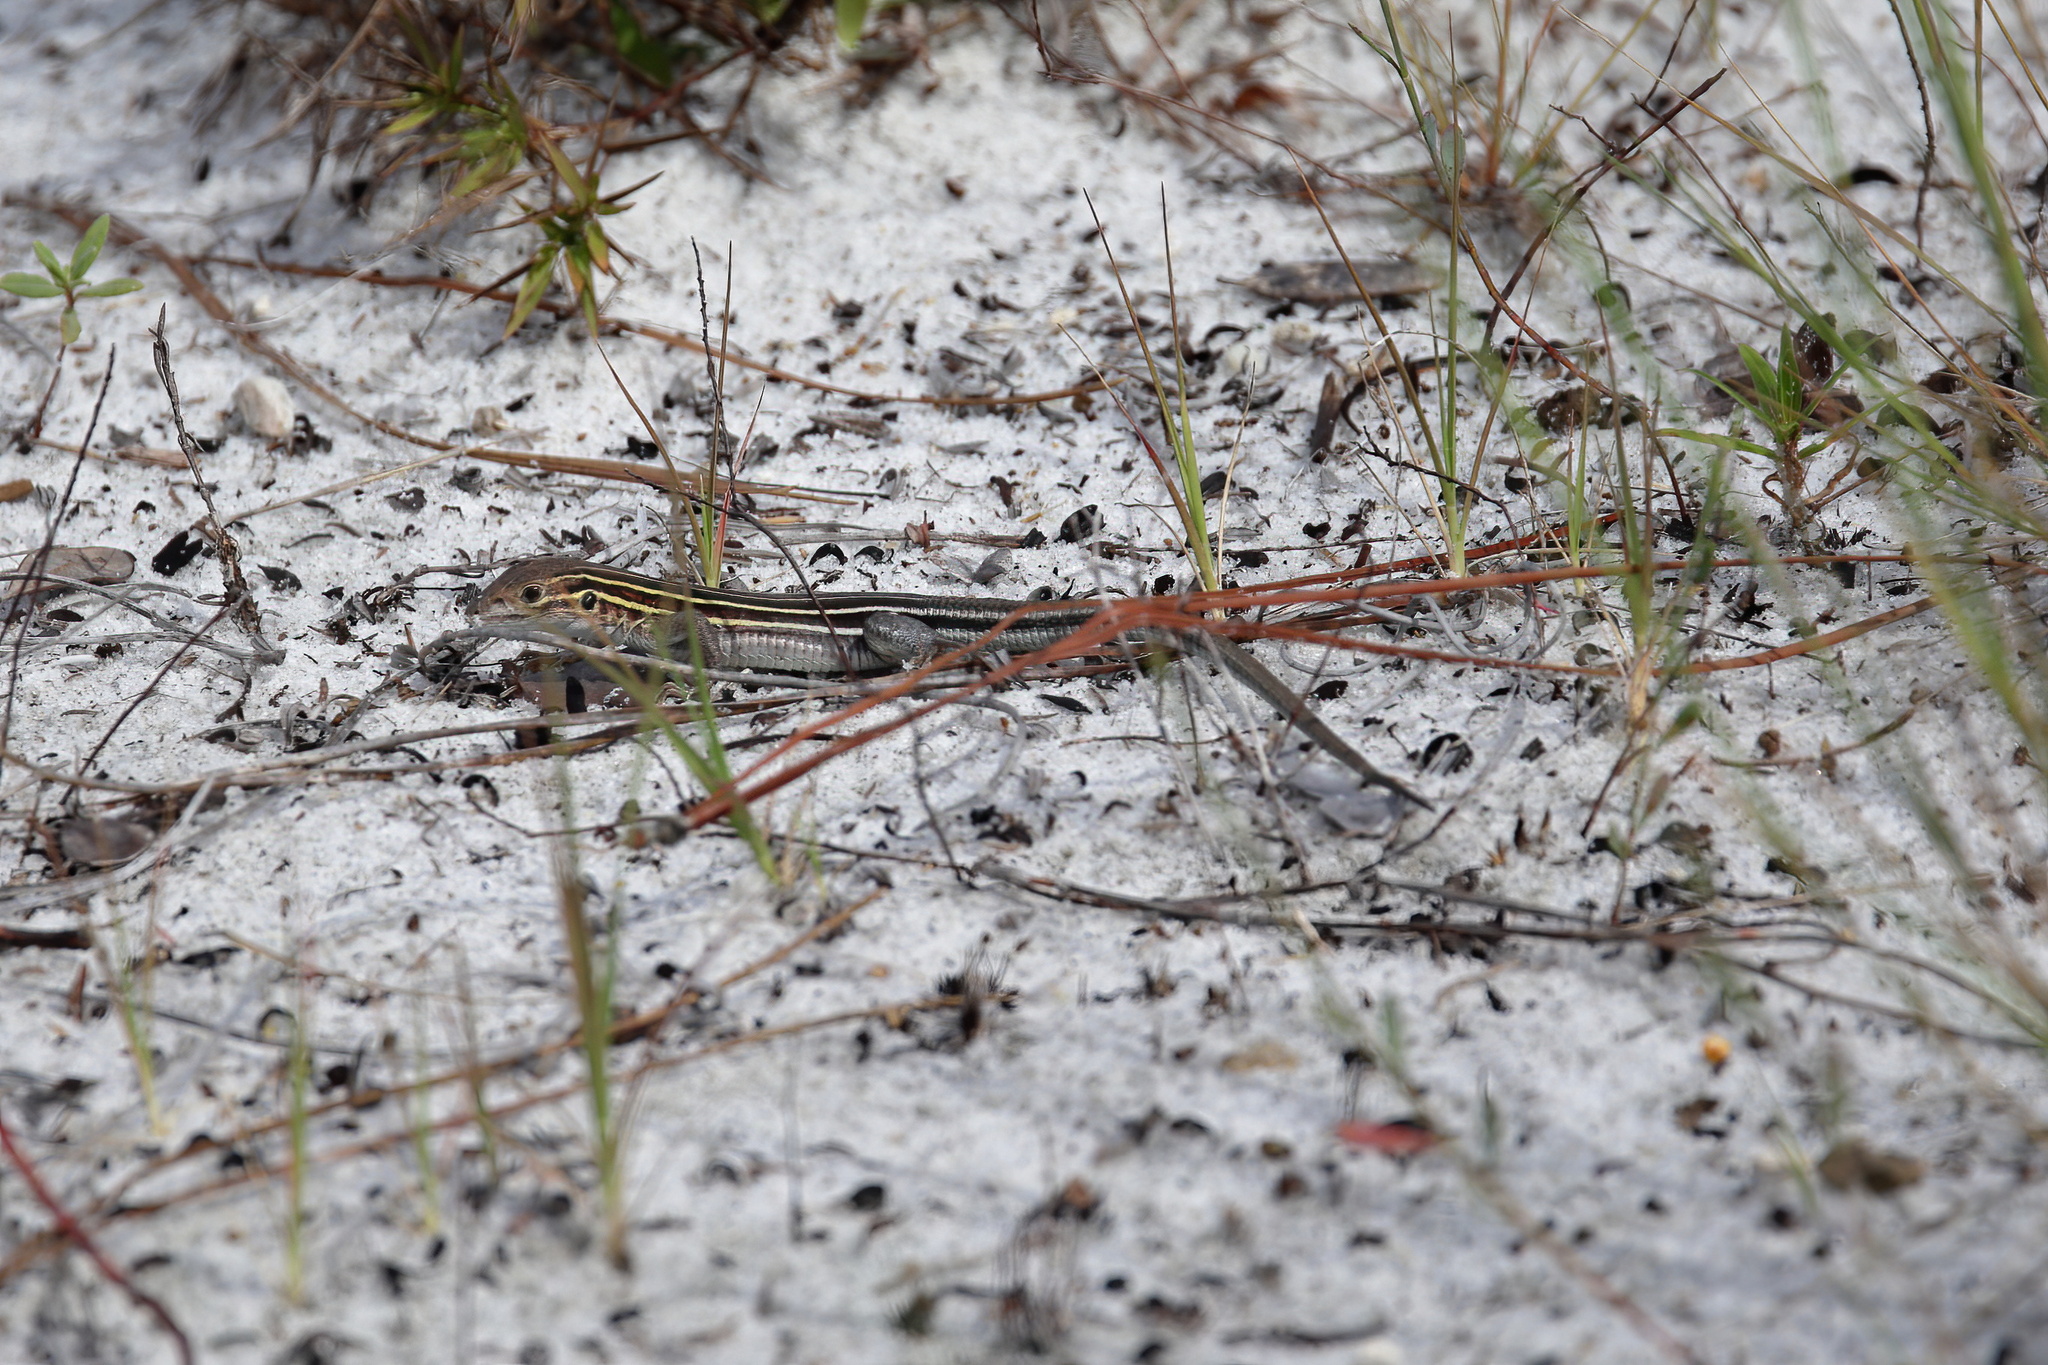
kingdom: Animalia
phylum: Chordata
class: Squamata
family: Teiidae
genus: Aspidoscelis
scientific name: Aspidoscelis sexlineatus
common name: Six-lined racerunner
